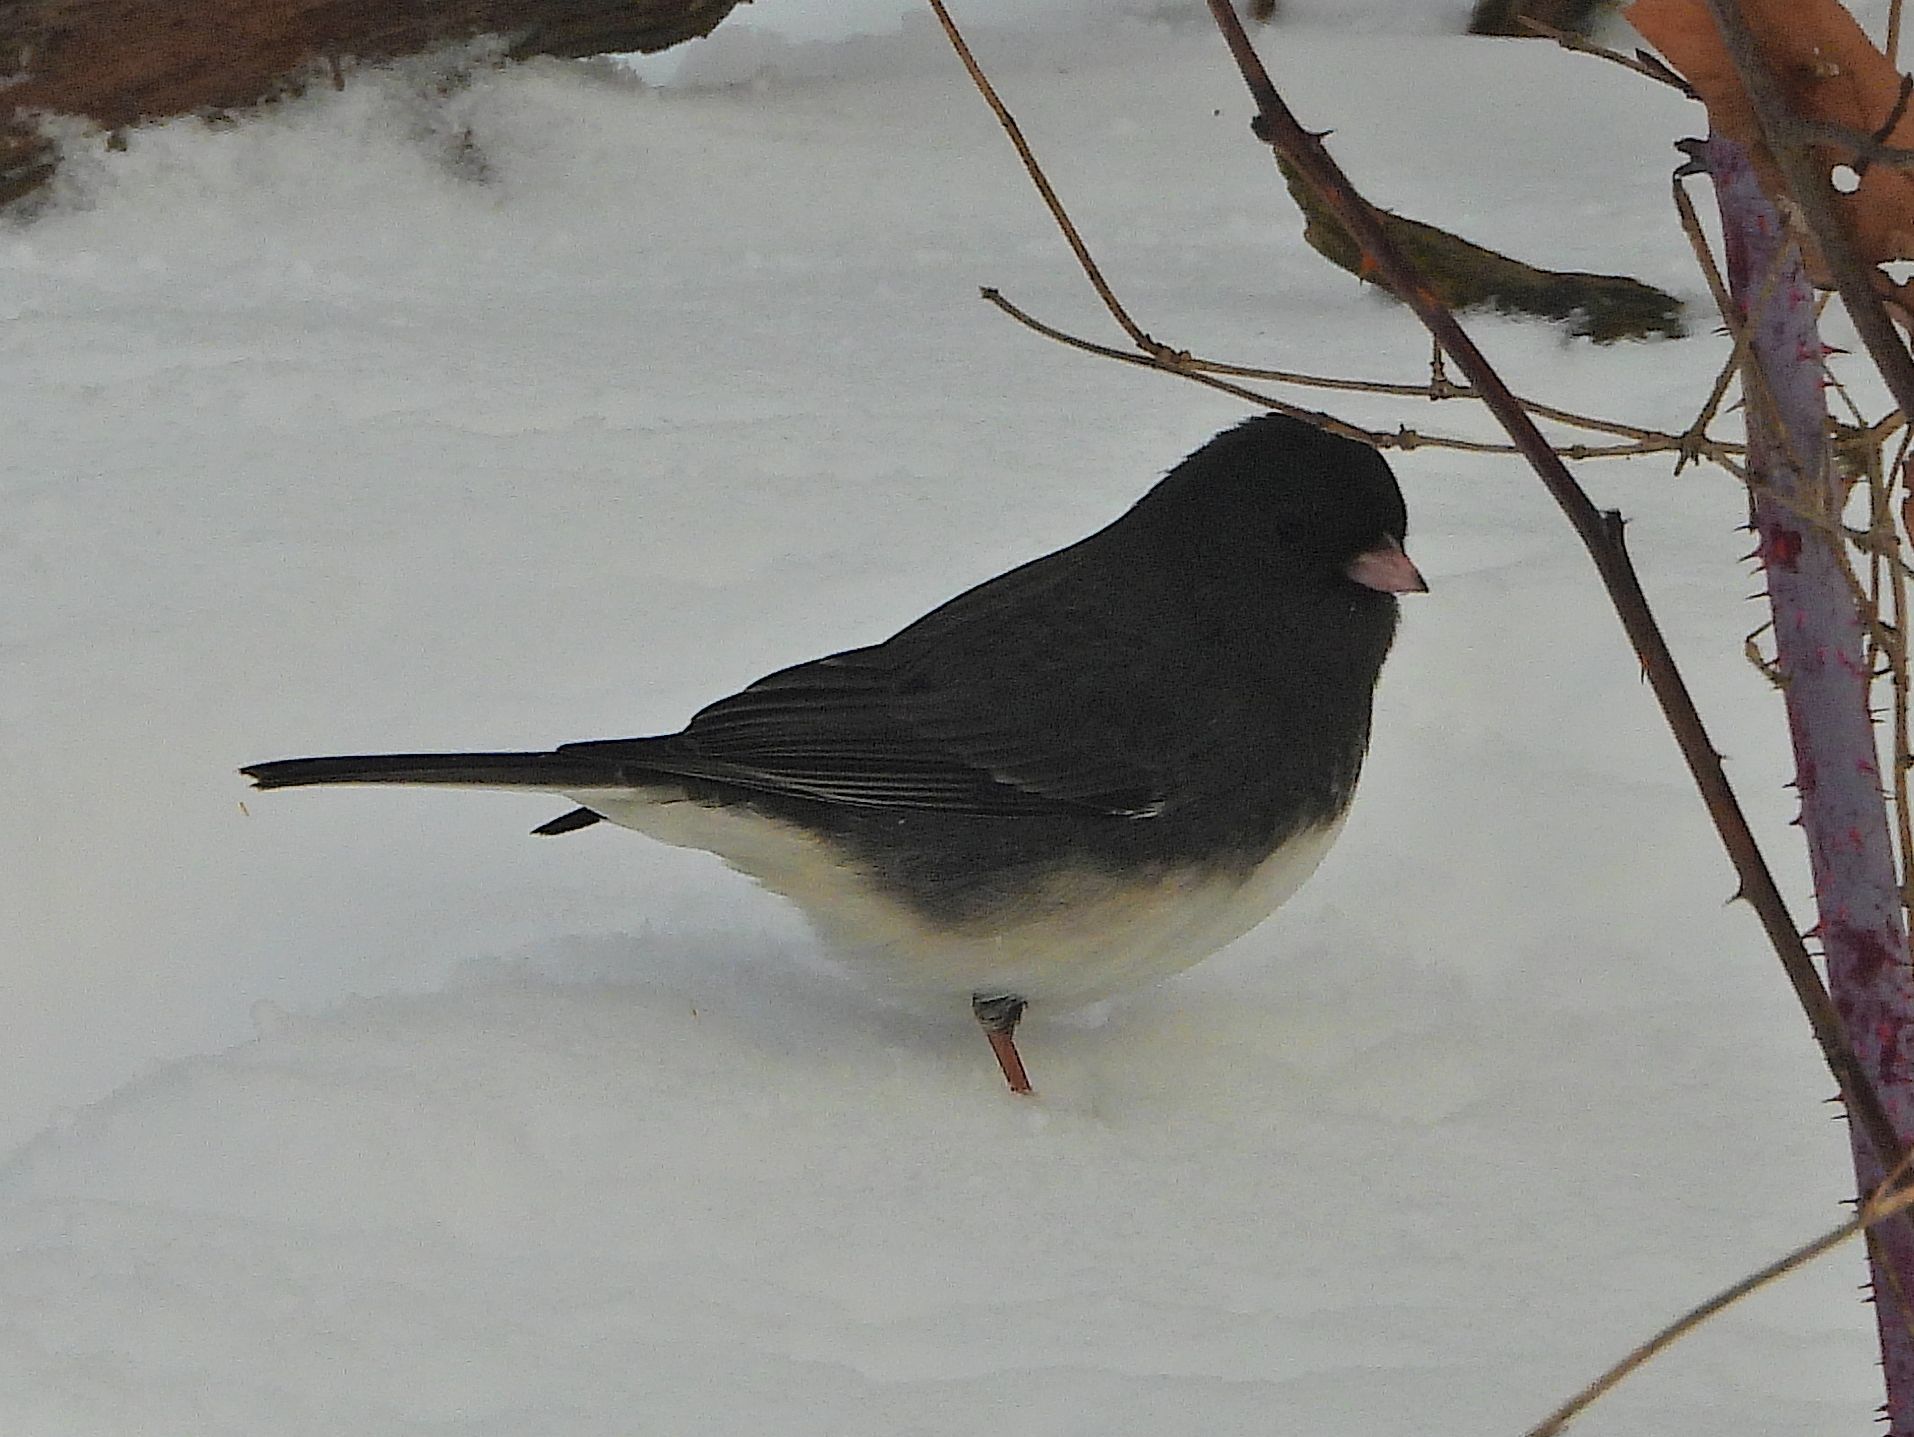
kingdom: Animalia
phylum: Chordata
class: Aves
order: Passeriformes
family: Passerellidae
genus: Junco
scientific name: Junco hyemalis
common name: Dark-eyed junco
